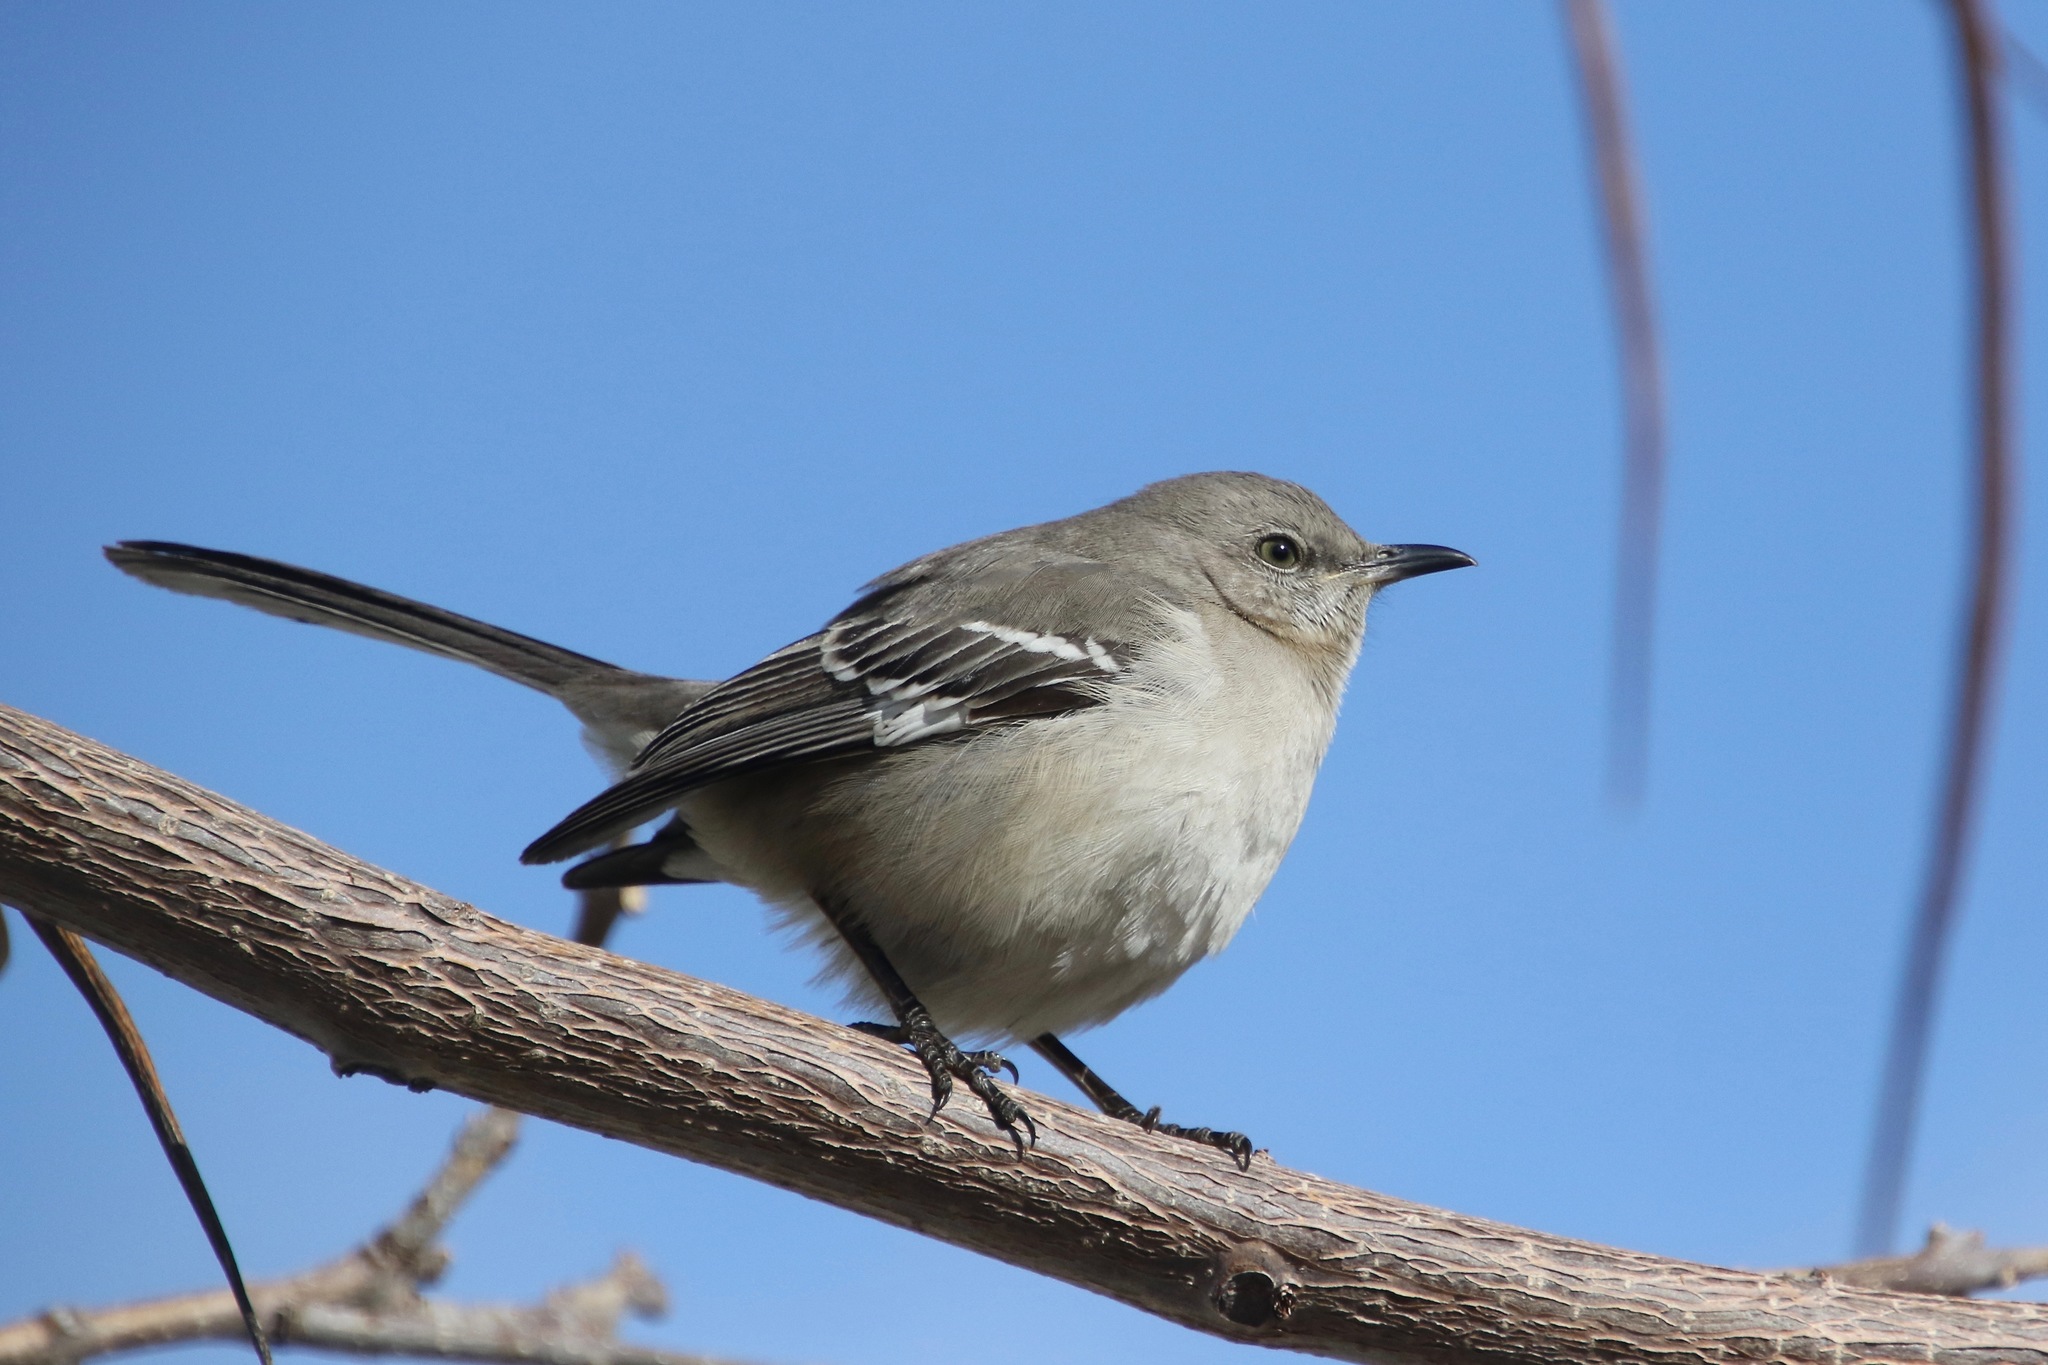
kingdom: Animalia
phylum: Chordata
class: Aves
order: Passeriformes
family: Mimidae
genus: Mimus
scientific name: Mimus polyglottos
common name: Northern mockingbird
